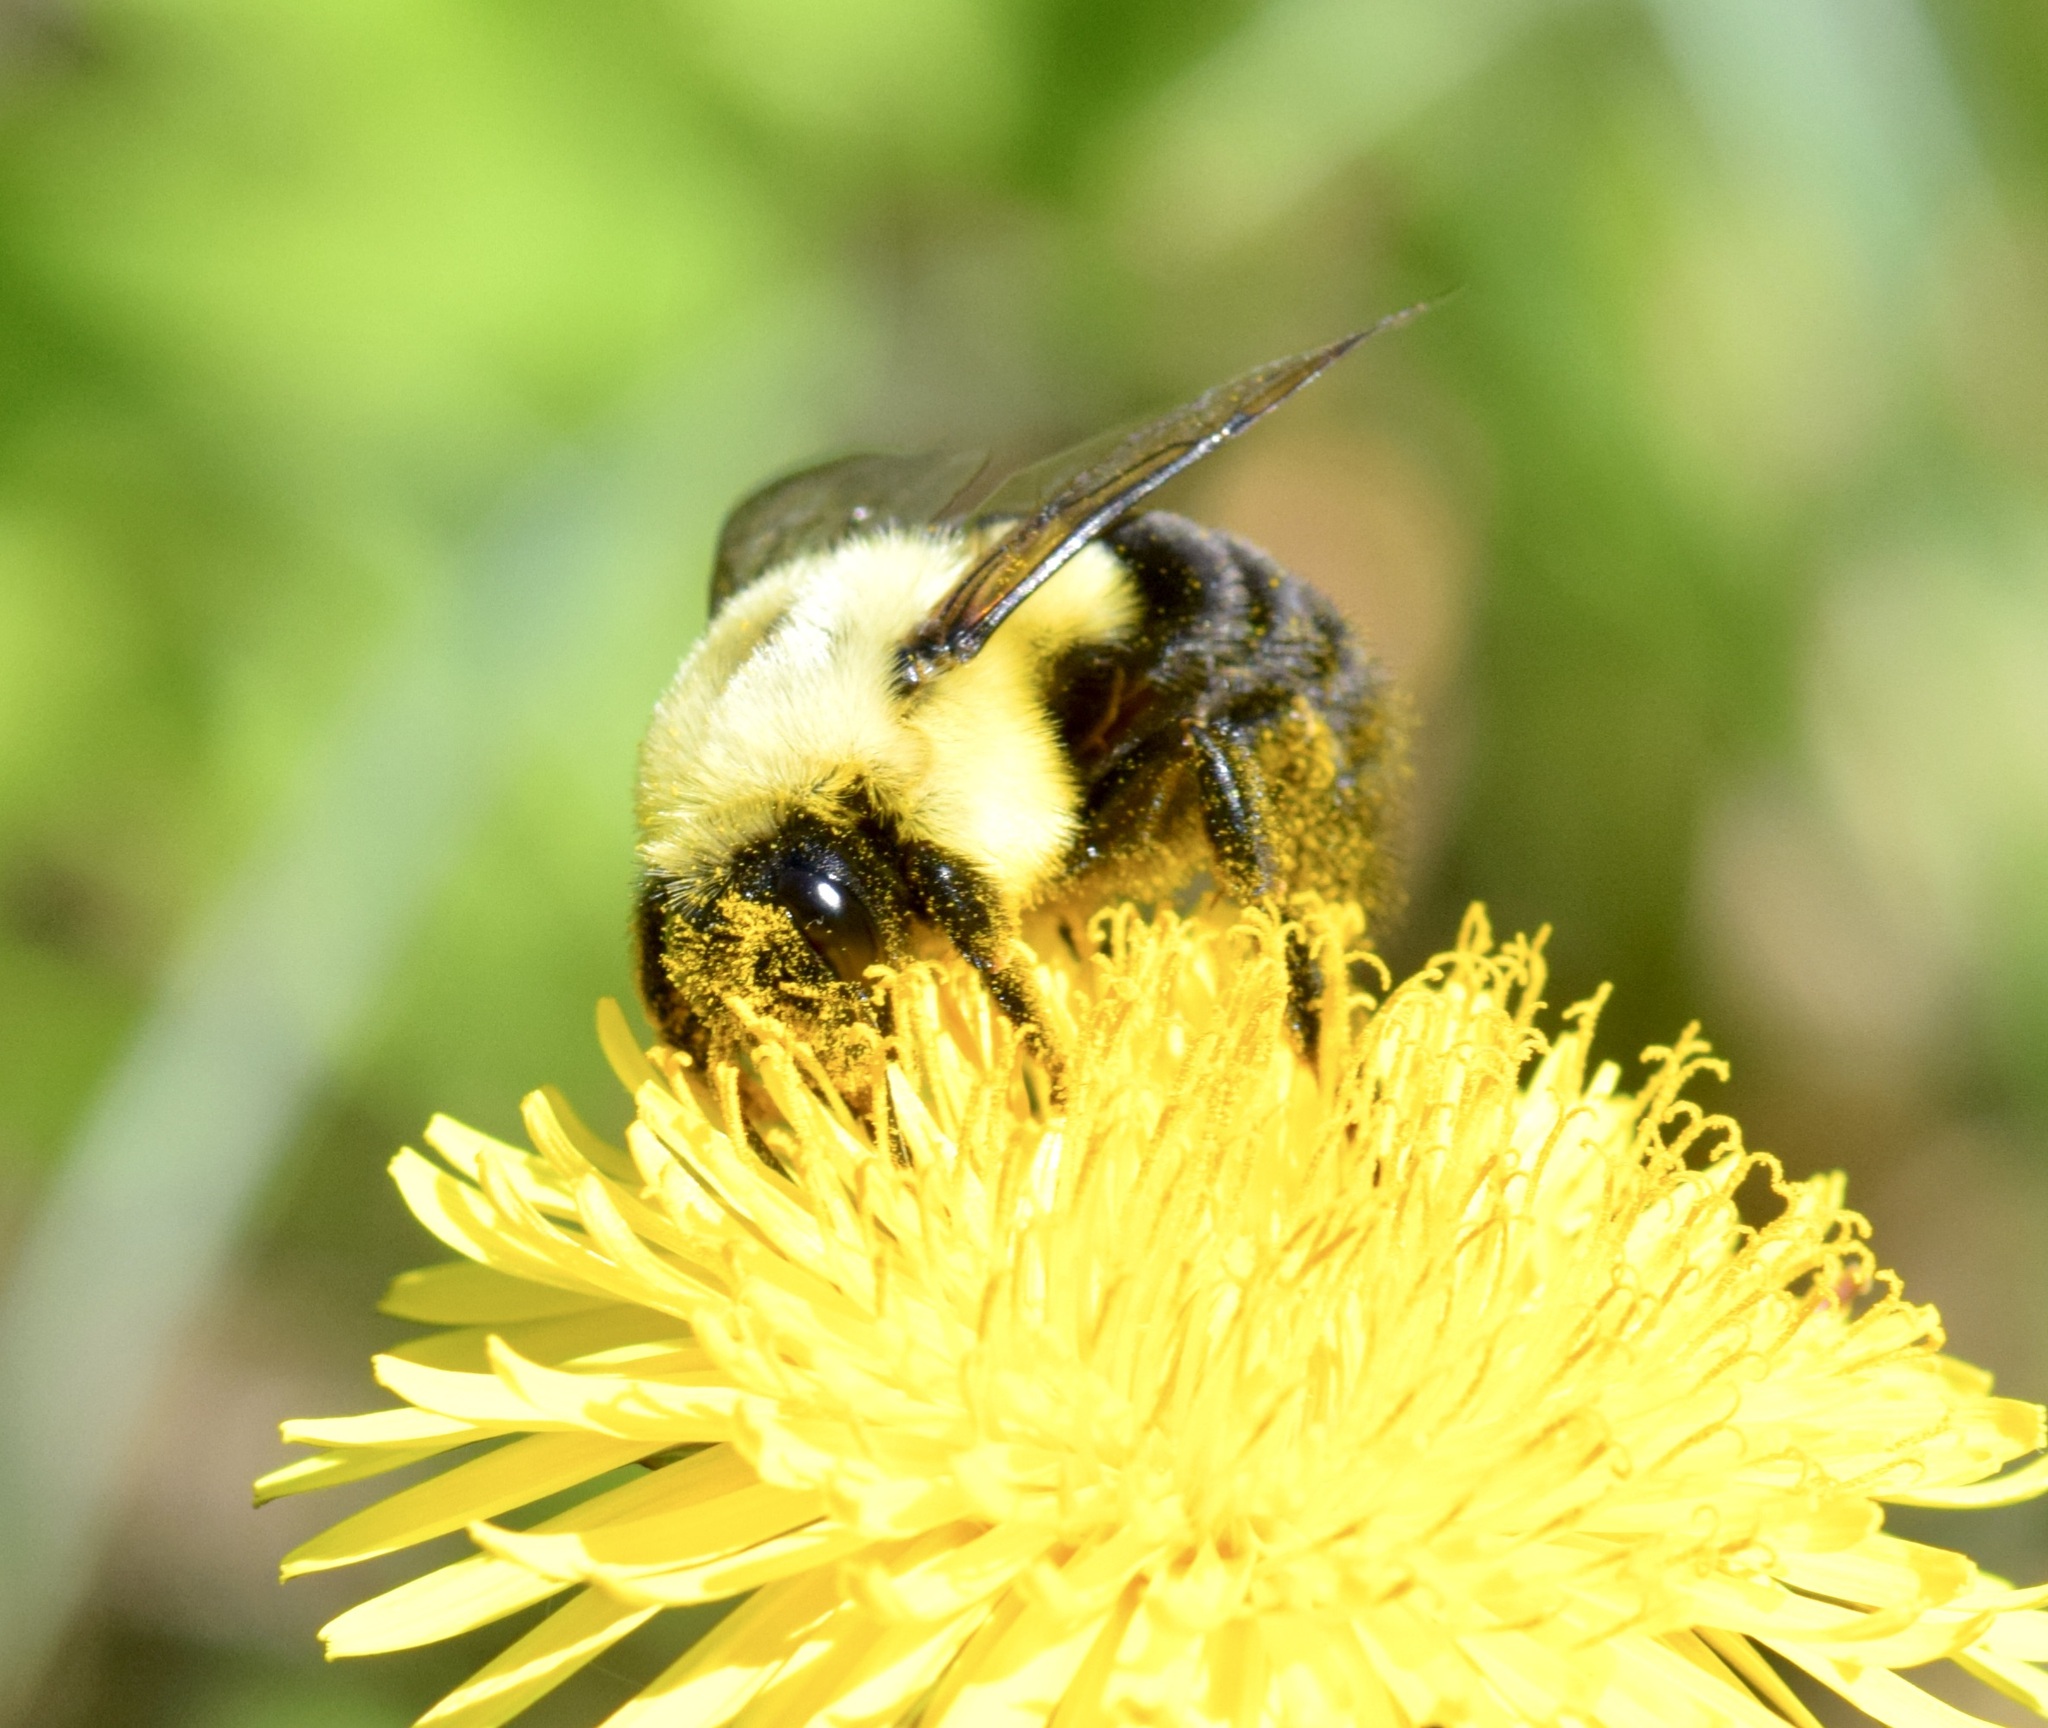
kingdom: Animalia
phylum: Arthropoda
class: Insecta
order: Hymenoptera
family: Apidae
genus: Bombus
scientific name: Bombus impatiens
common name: Common eastern bumble bee
